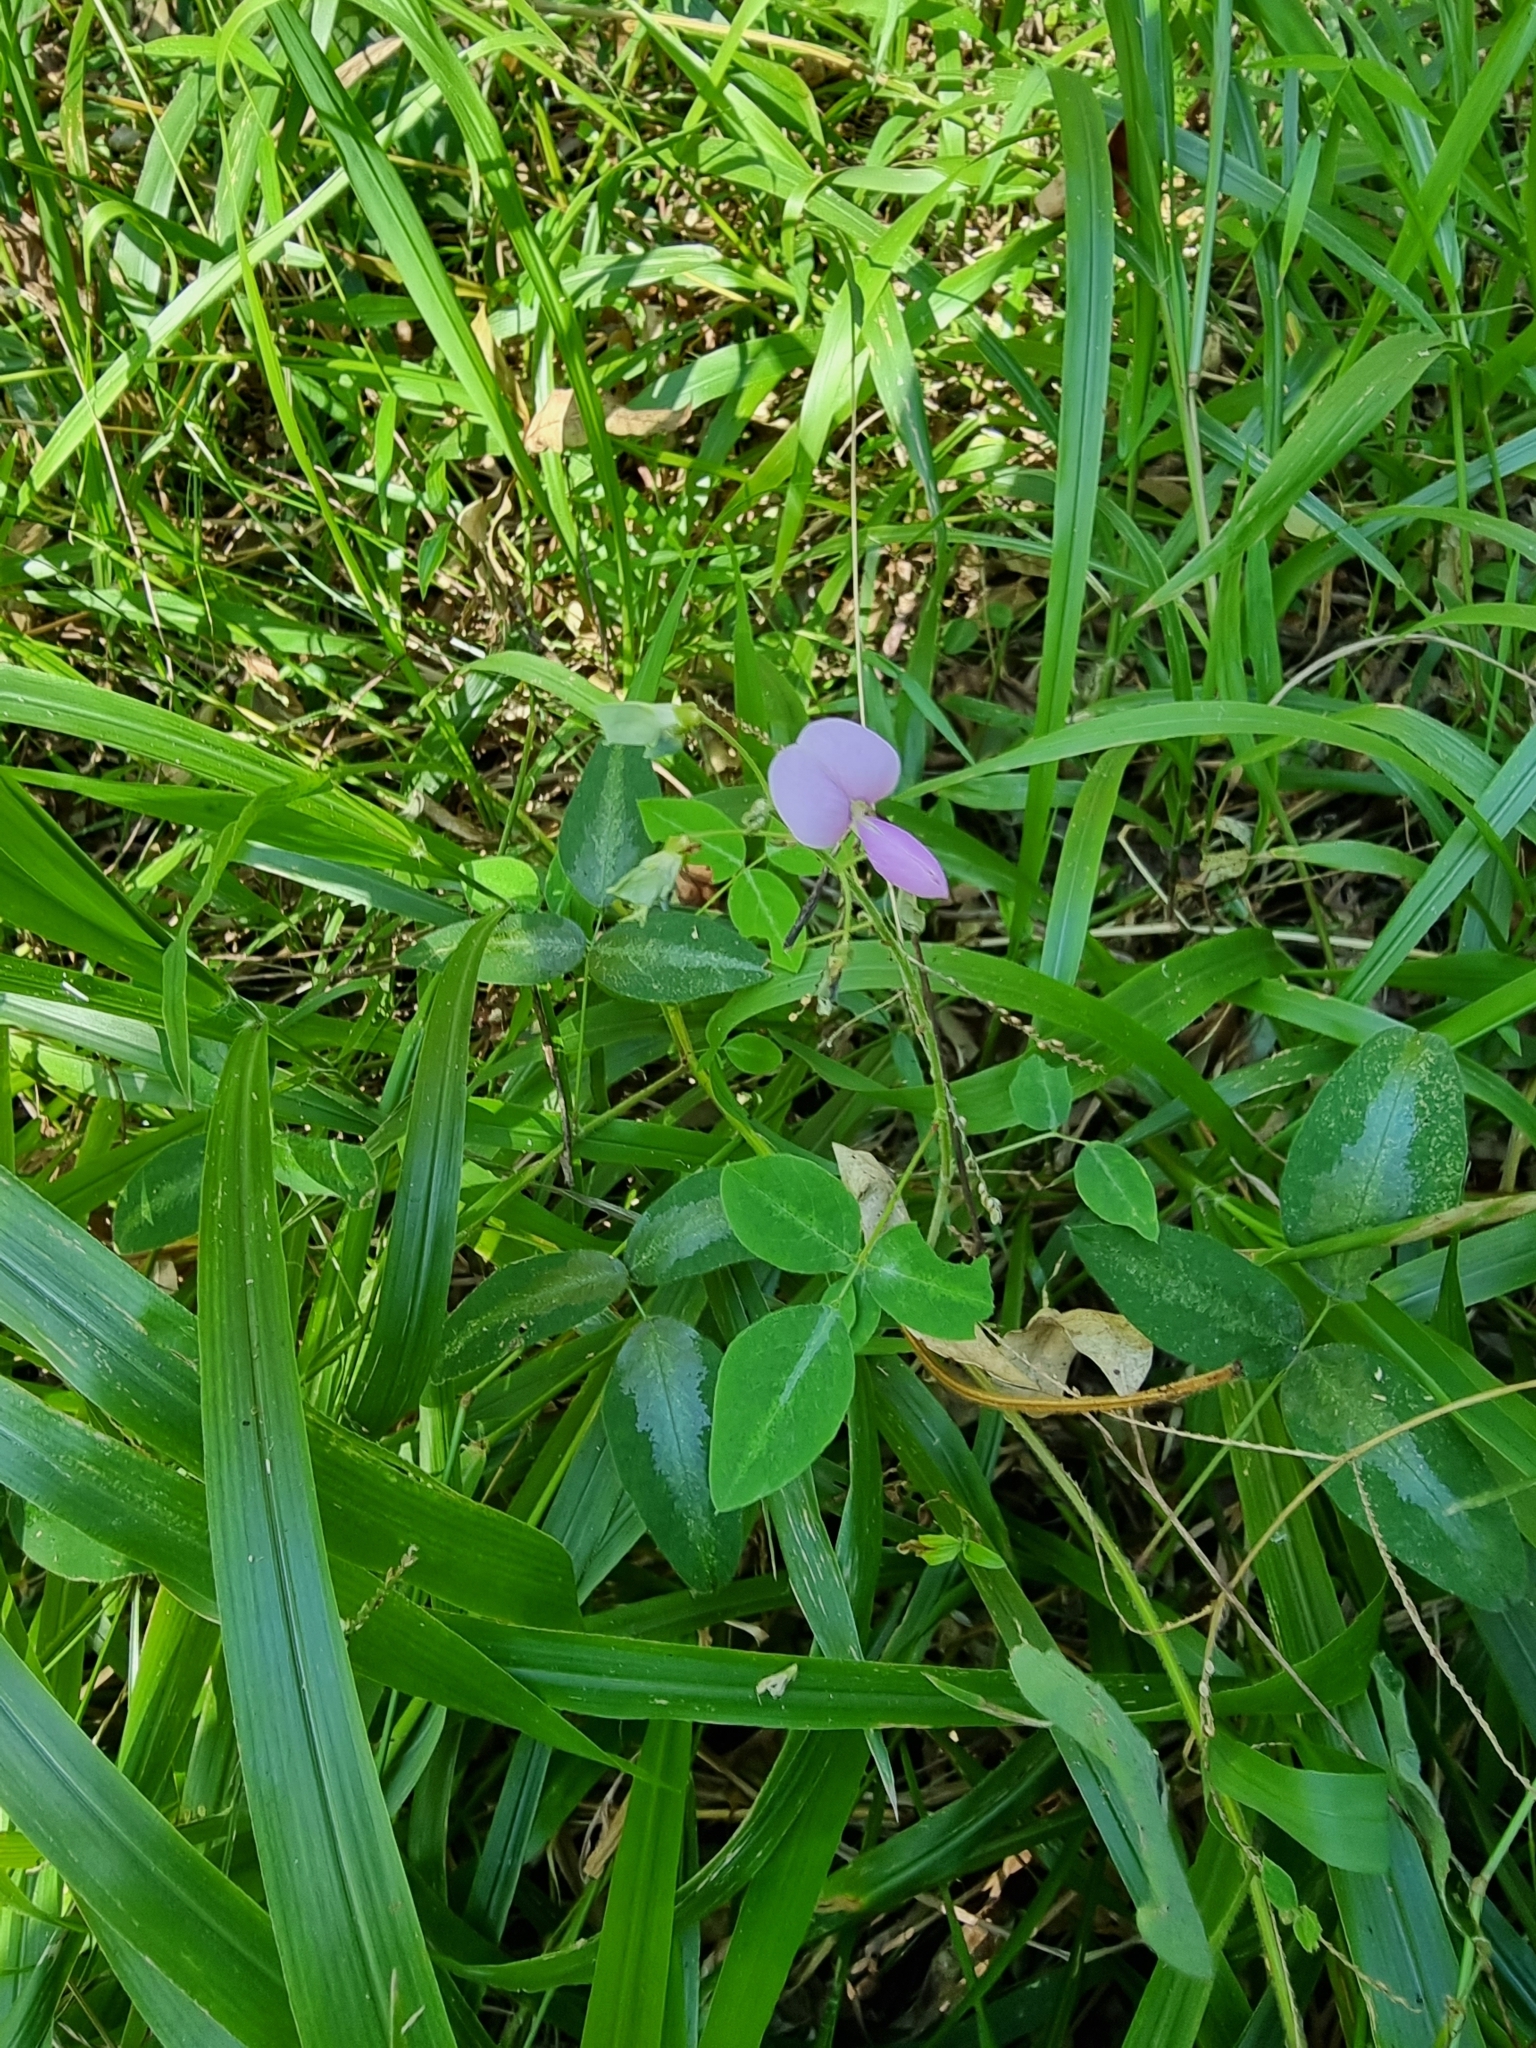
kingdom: Plantae
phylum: Tracheophyta
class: Magnoliopsida
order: Fabales
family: Fabaceae
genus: Desmodium
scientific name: Desmodium uncinatum
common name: Silverleaf desmodium
